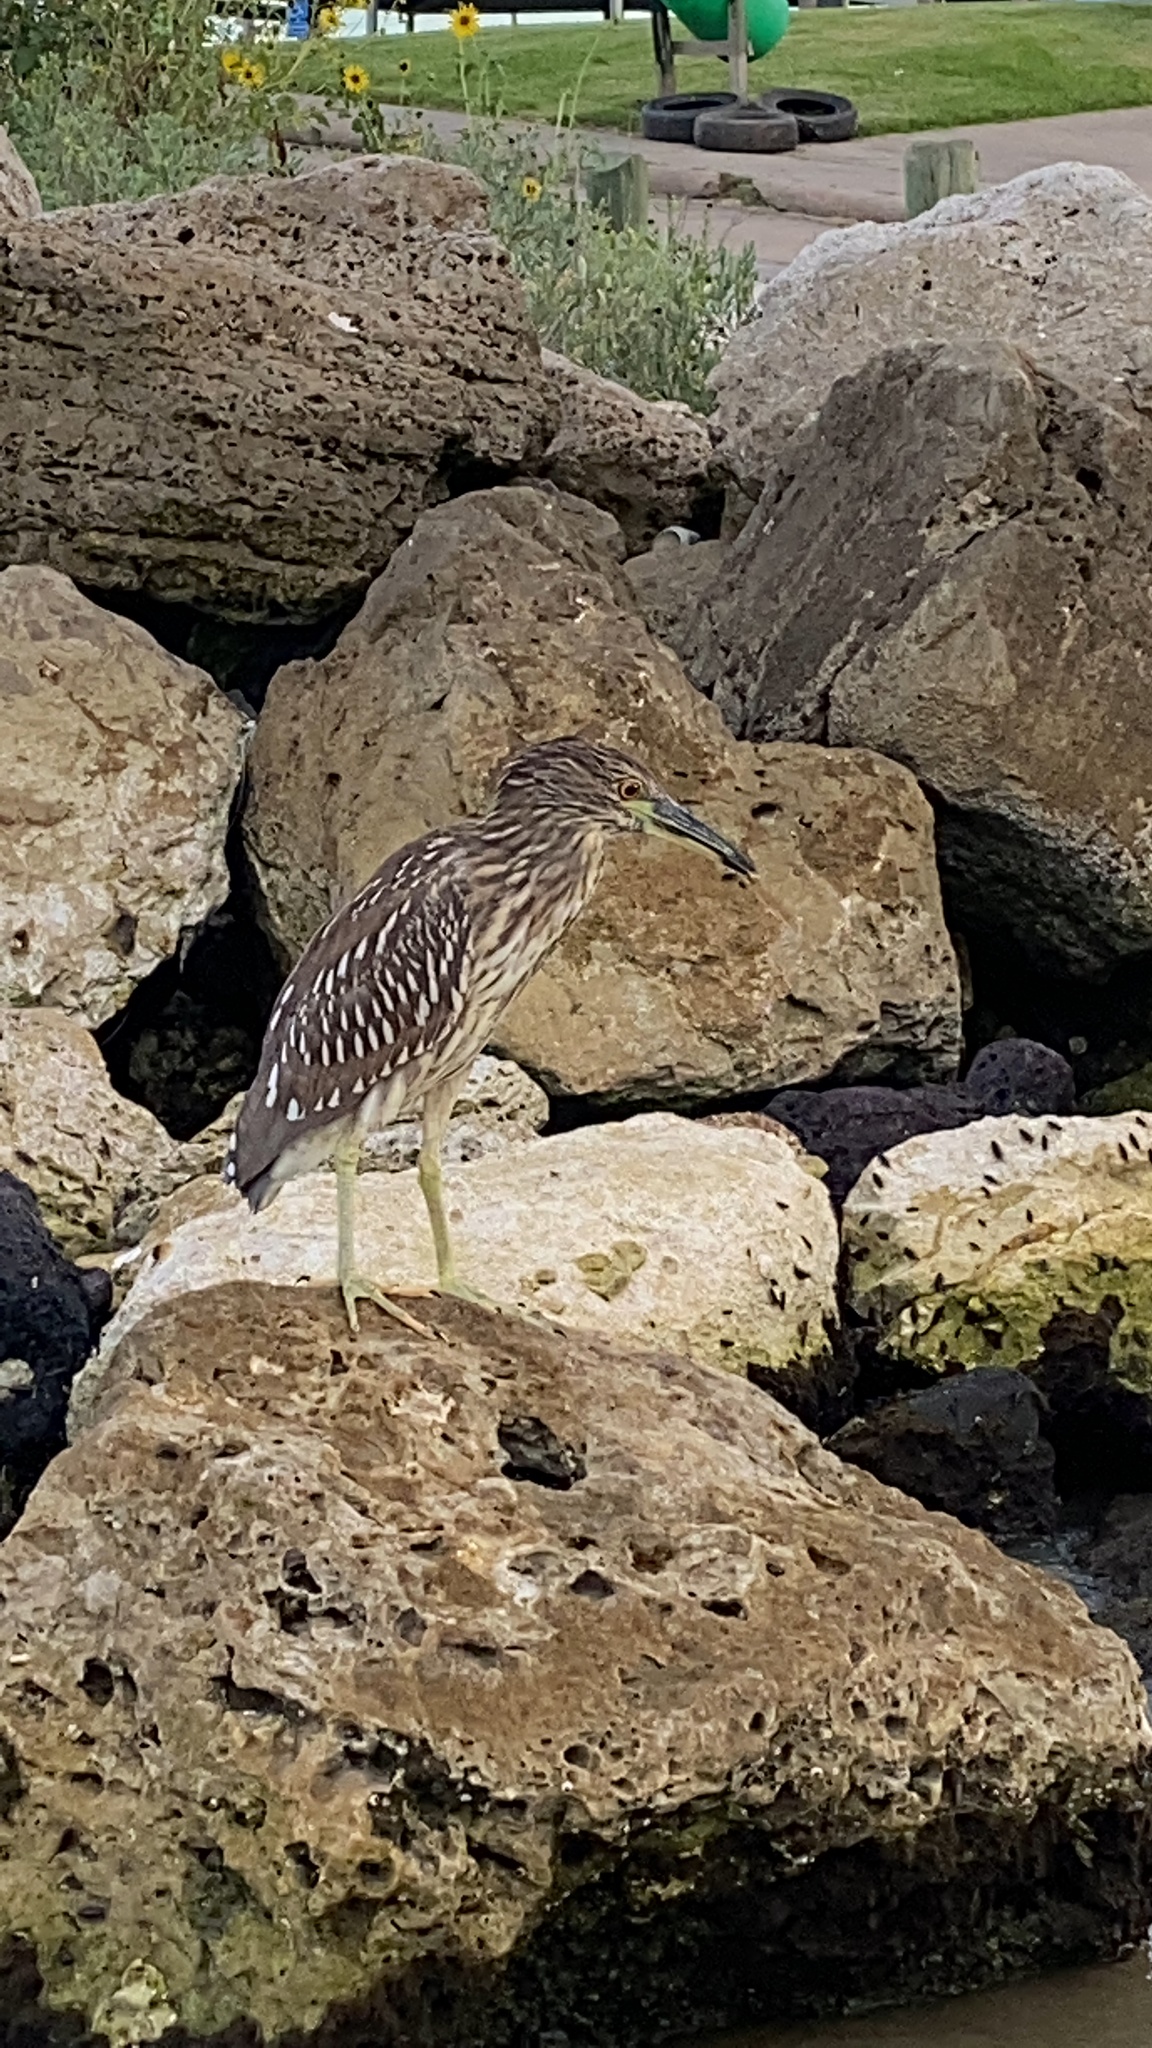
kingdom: Animalia
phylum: Chordata
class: Aves
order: Pelecaniformes
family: Ardeidae
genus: Nycticorax
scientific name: Nycticorax nycticorax
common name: Black-crowned night heron
